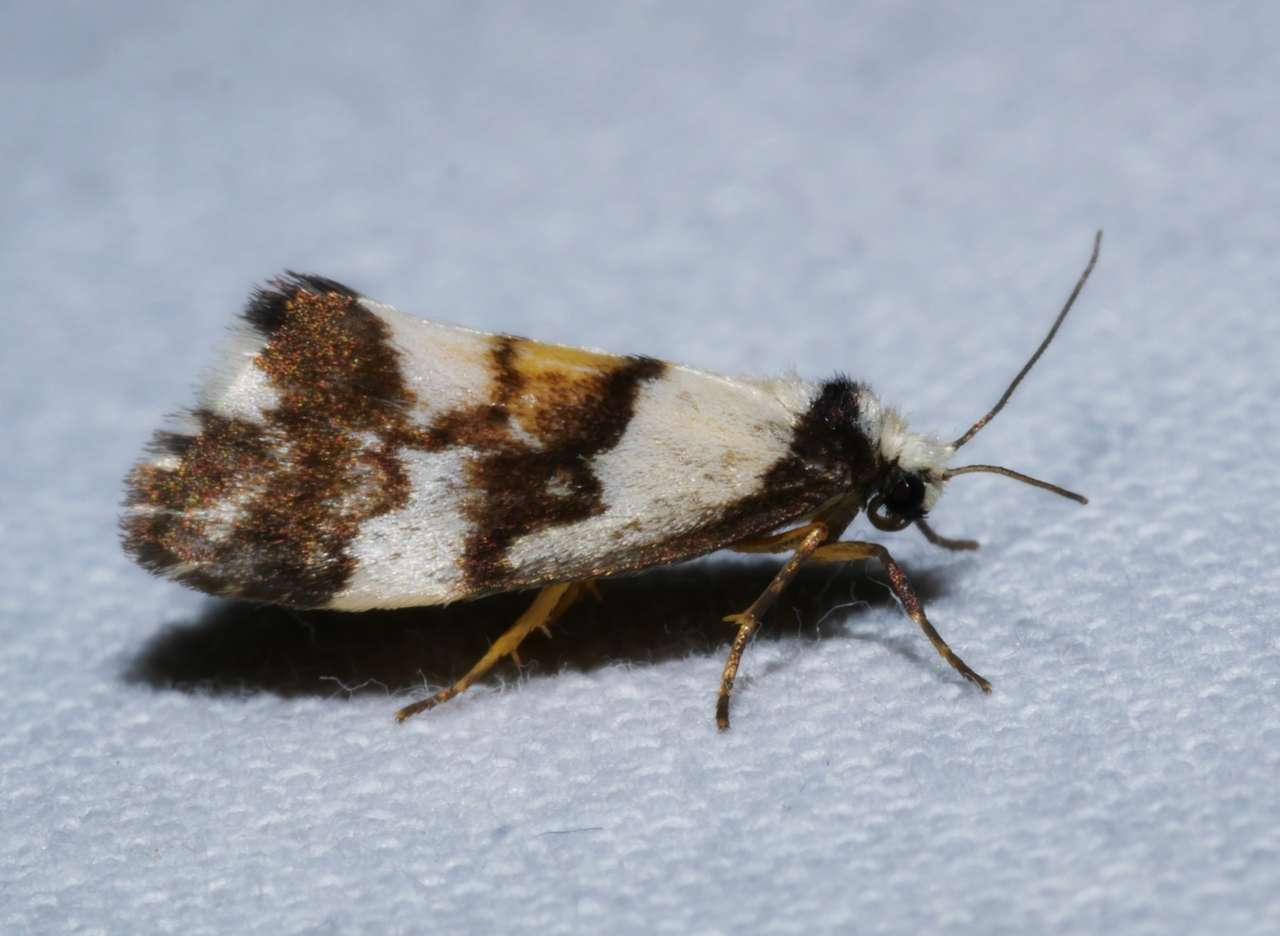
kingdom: Animalia
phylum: Arthropoda
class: Insecta
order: Lepidoptera
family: Erebidae
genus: Philenora
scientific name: Philenora irregularis
